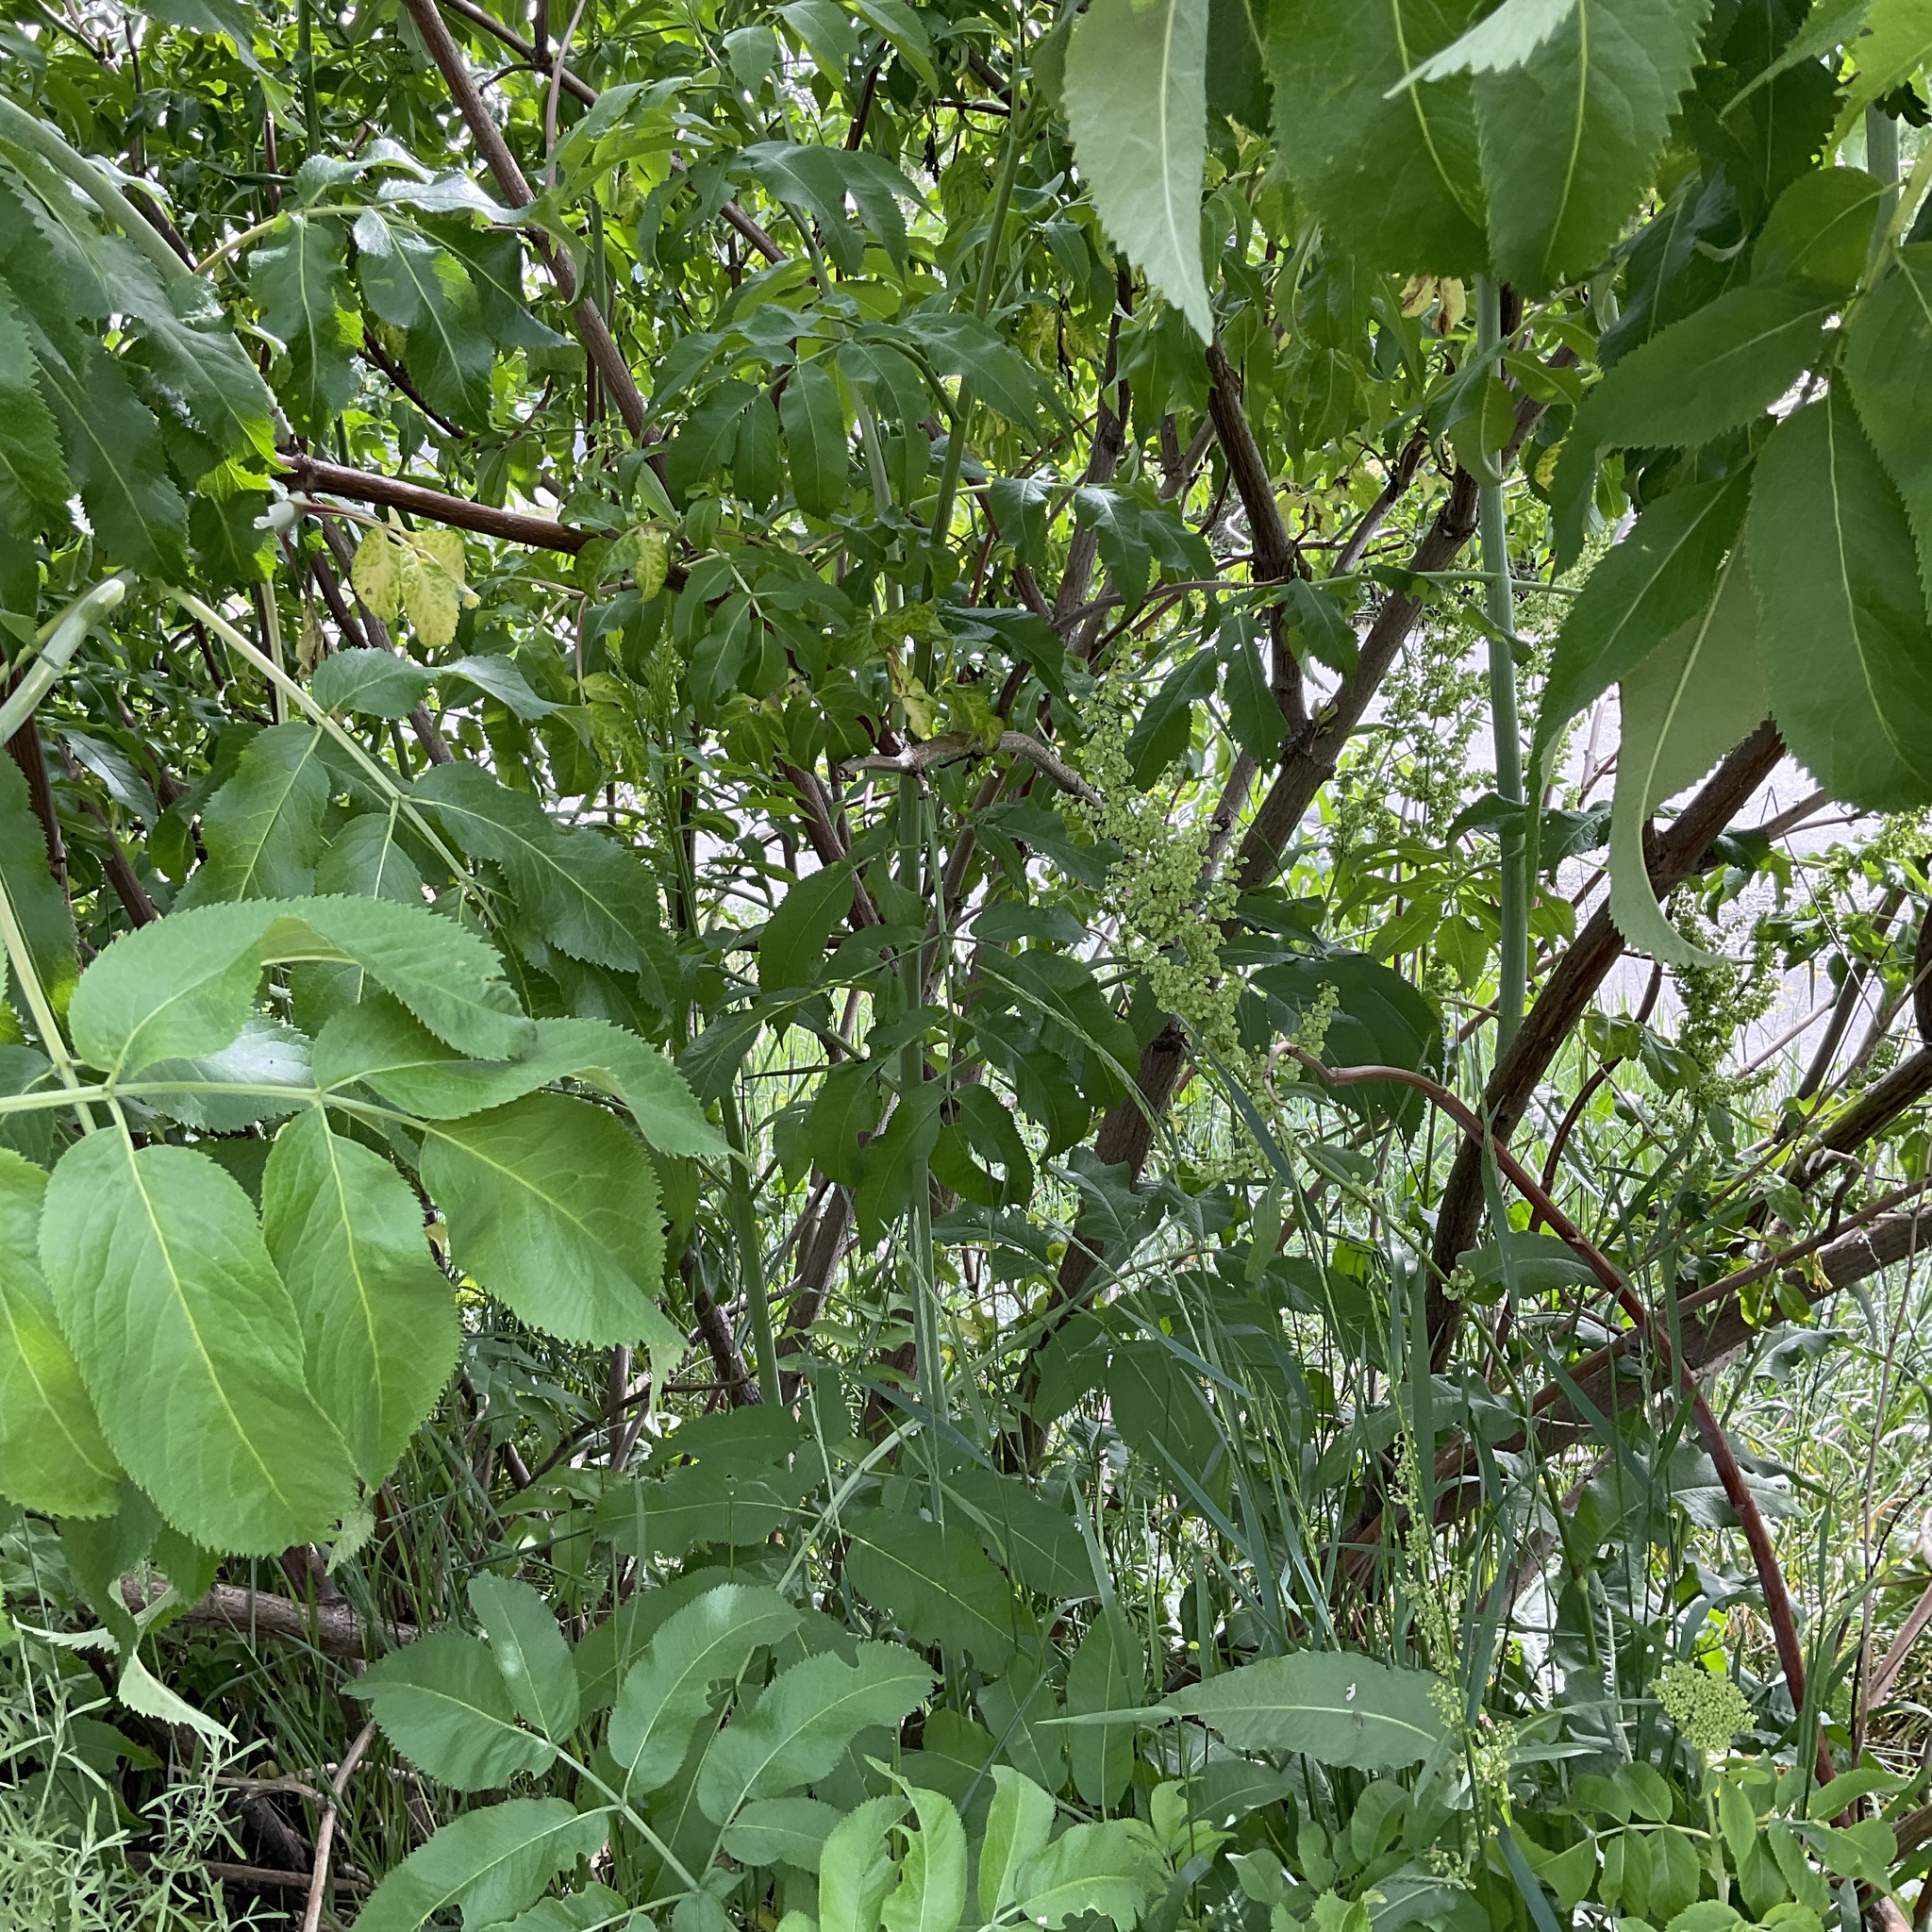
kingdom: Plantae
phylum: Tracheophyta
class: Magnoliopsida
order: Dipsacales
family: Viburnaceae
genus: Sambucus
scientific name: Sambucus cerulea
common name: Blue elder
